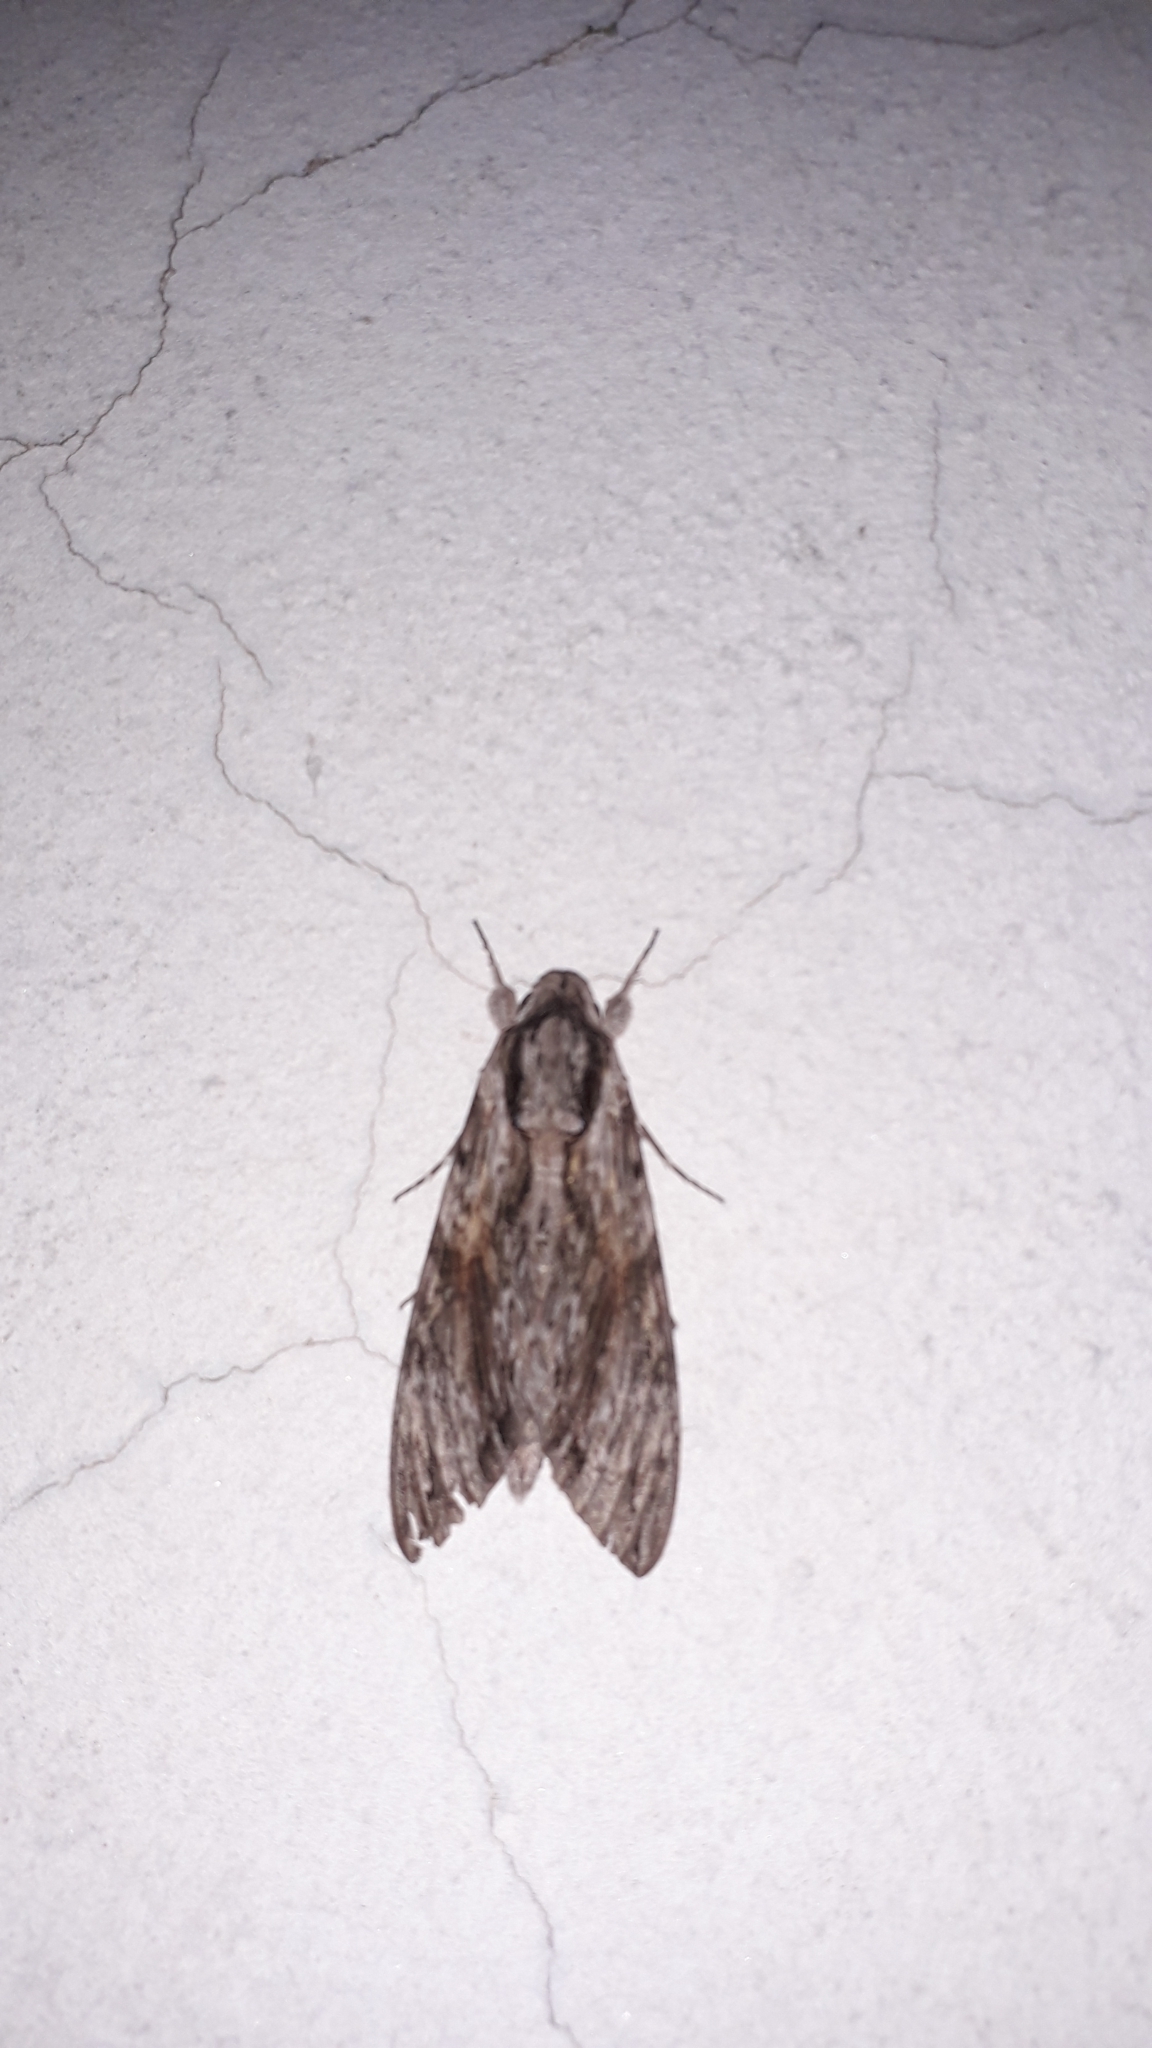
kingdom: Animalia
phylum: Arthropoda
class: Insecta
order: Lepidoptera
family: Sphingidae
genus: Agrius
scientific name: Agrius convolvuli
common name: Convolvulus hawkmoth
